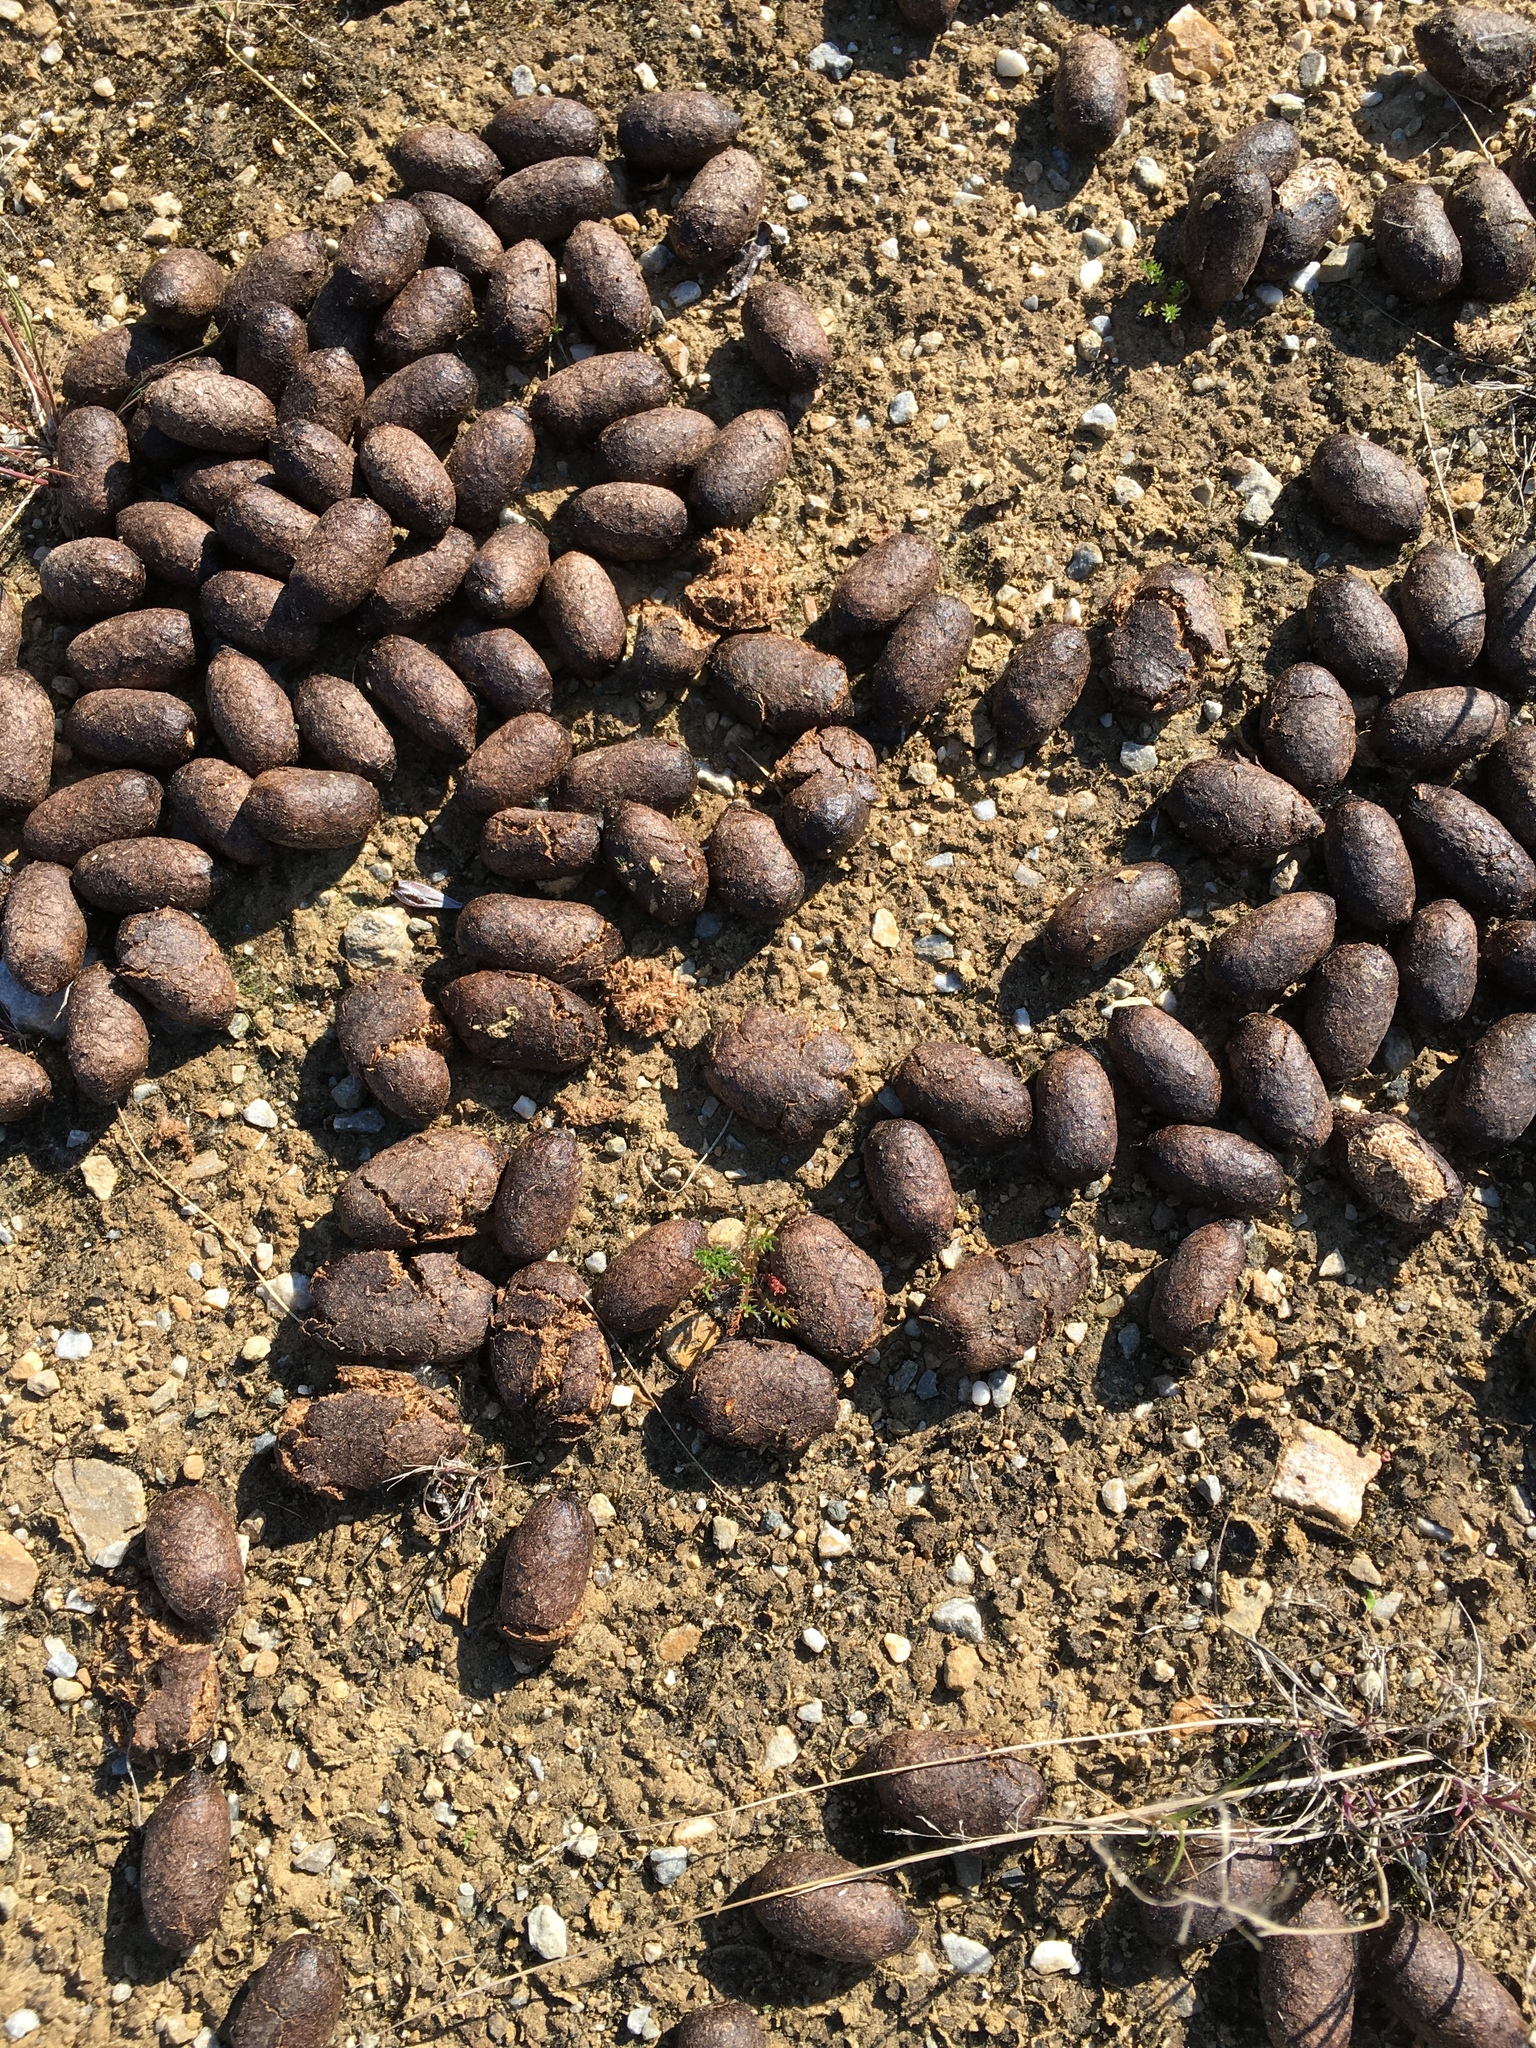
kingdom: Animalia
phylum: Chordata
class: Mammalia
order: Artiodactyla
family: Cervidae
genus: Alces
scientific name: Alces alces
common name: Moose
